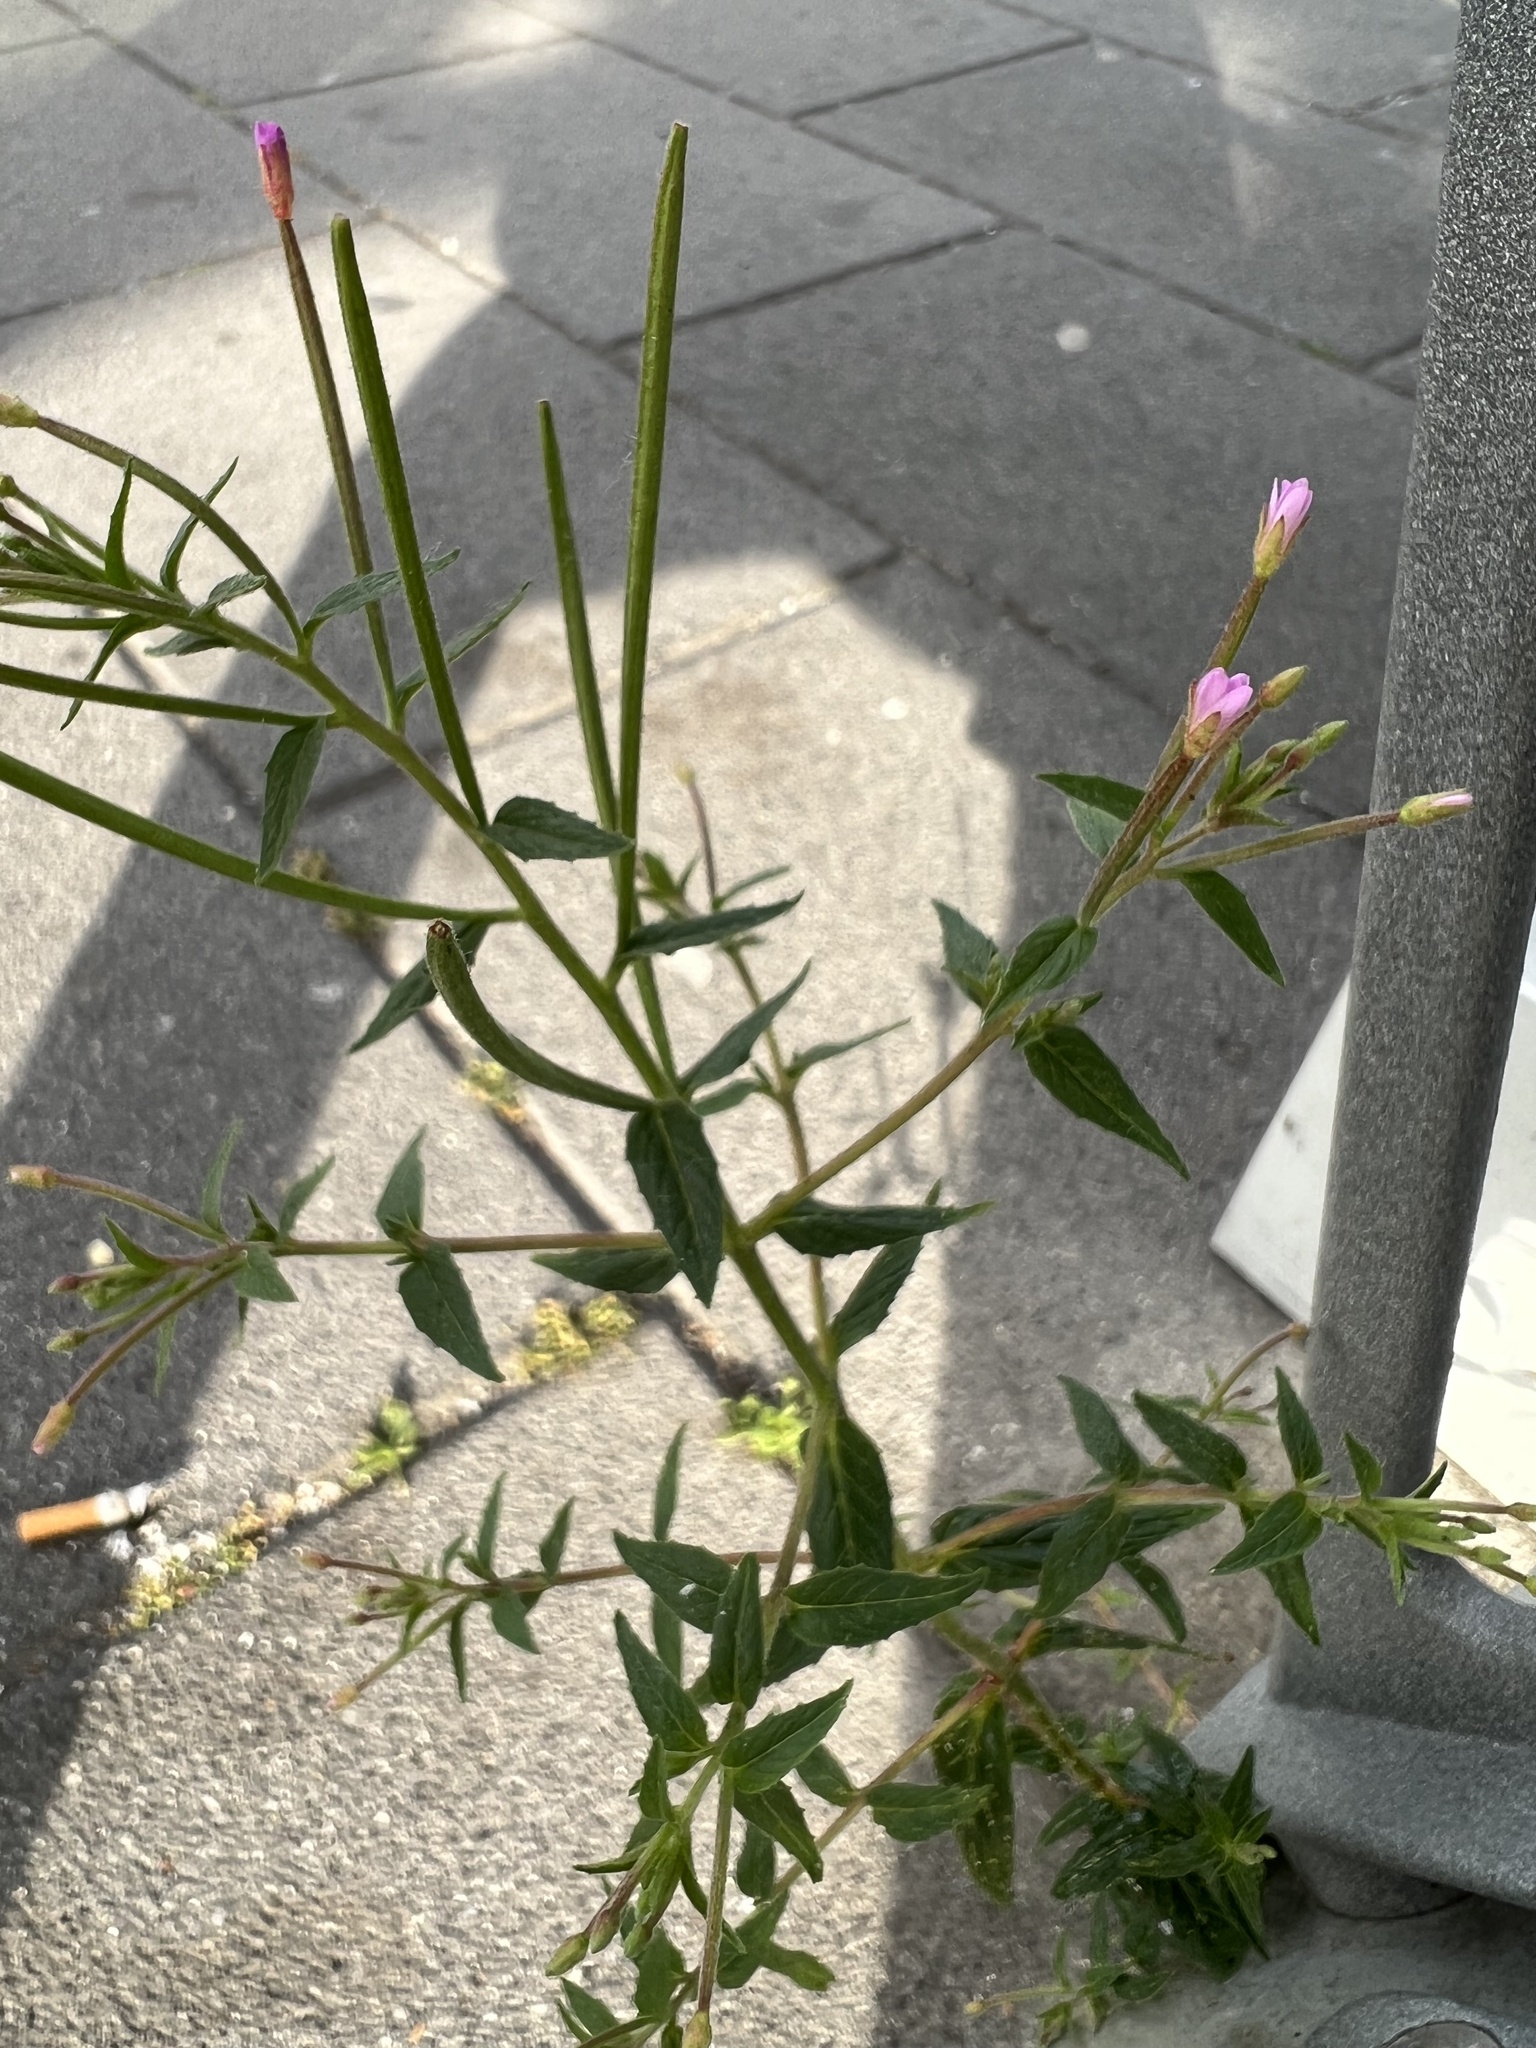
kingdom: Plantae
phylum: Tracheophyta
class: Magnoliopsida
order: Myrtales
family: Onagraceae
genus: Epilobium
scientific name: Epilobium ciliatum
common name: American willowherb
